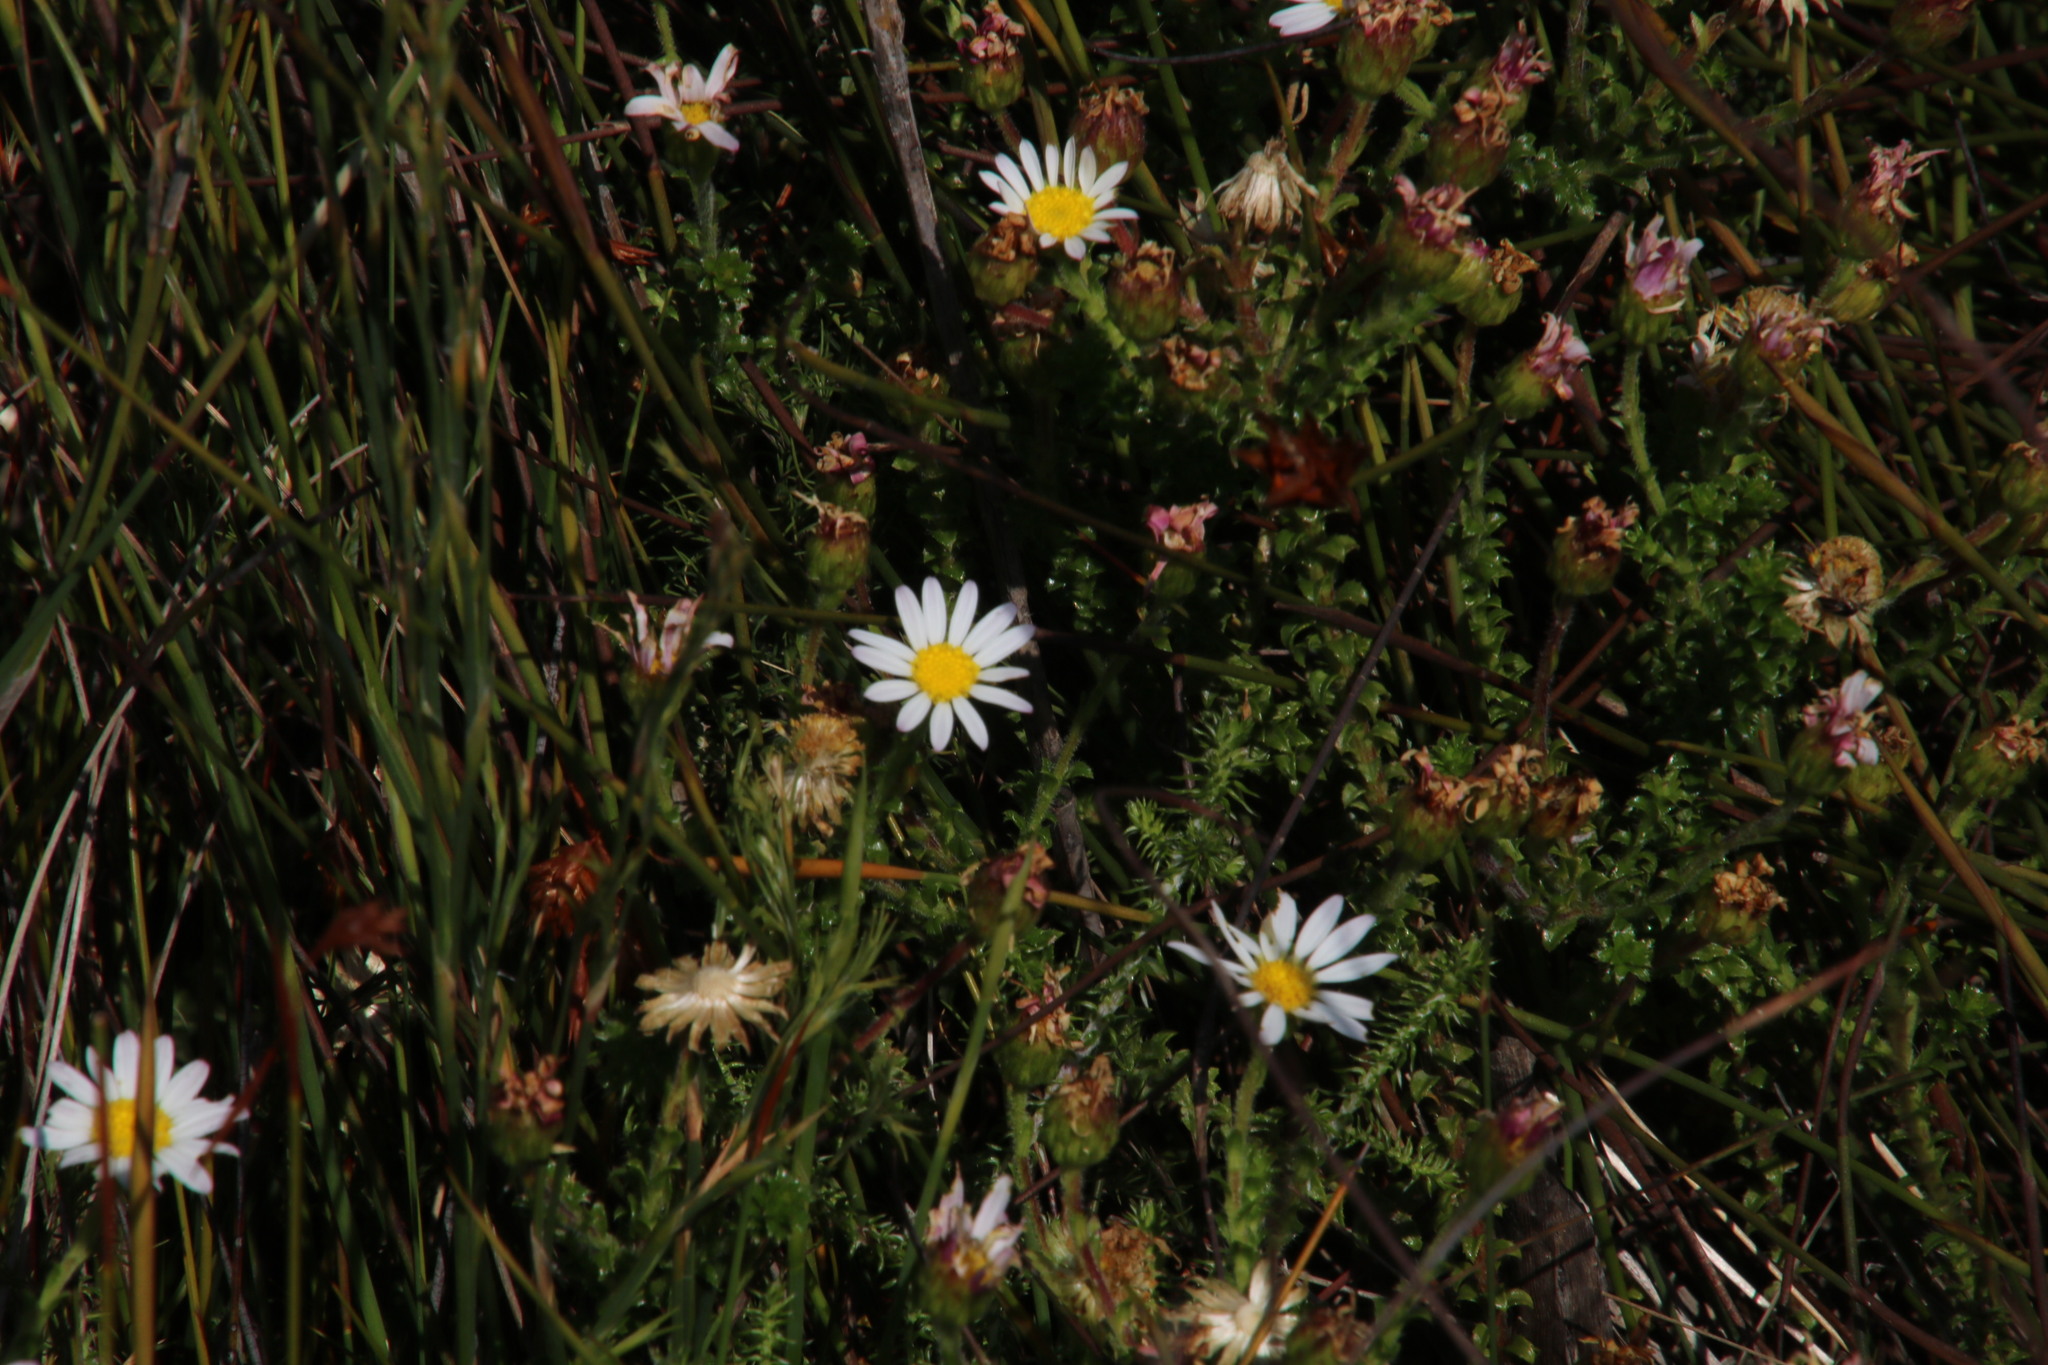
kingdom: Plantae
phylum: Tracheophyta
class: Magnoliopsida
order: Asterales
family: Asteraceae
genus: Polyarrhena
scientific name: Polyarrhena reflexa
